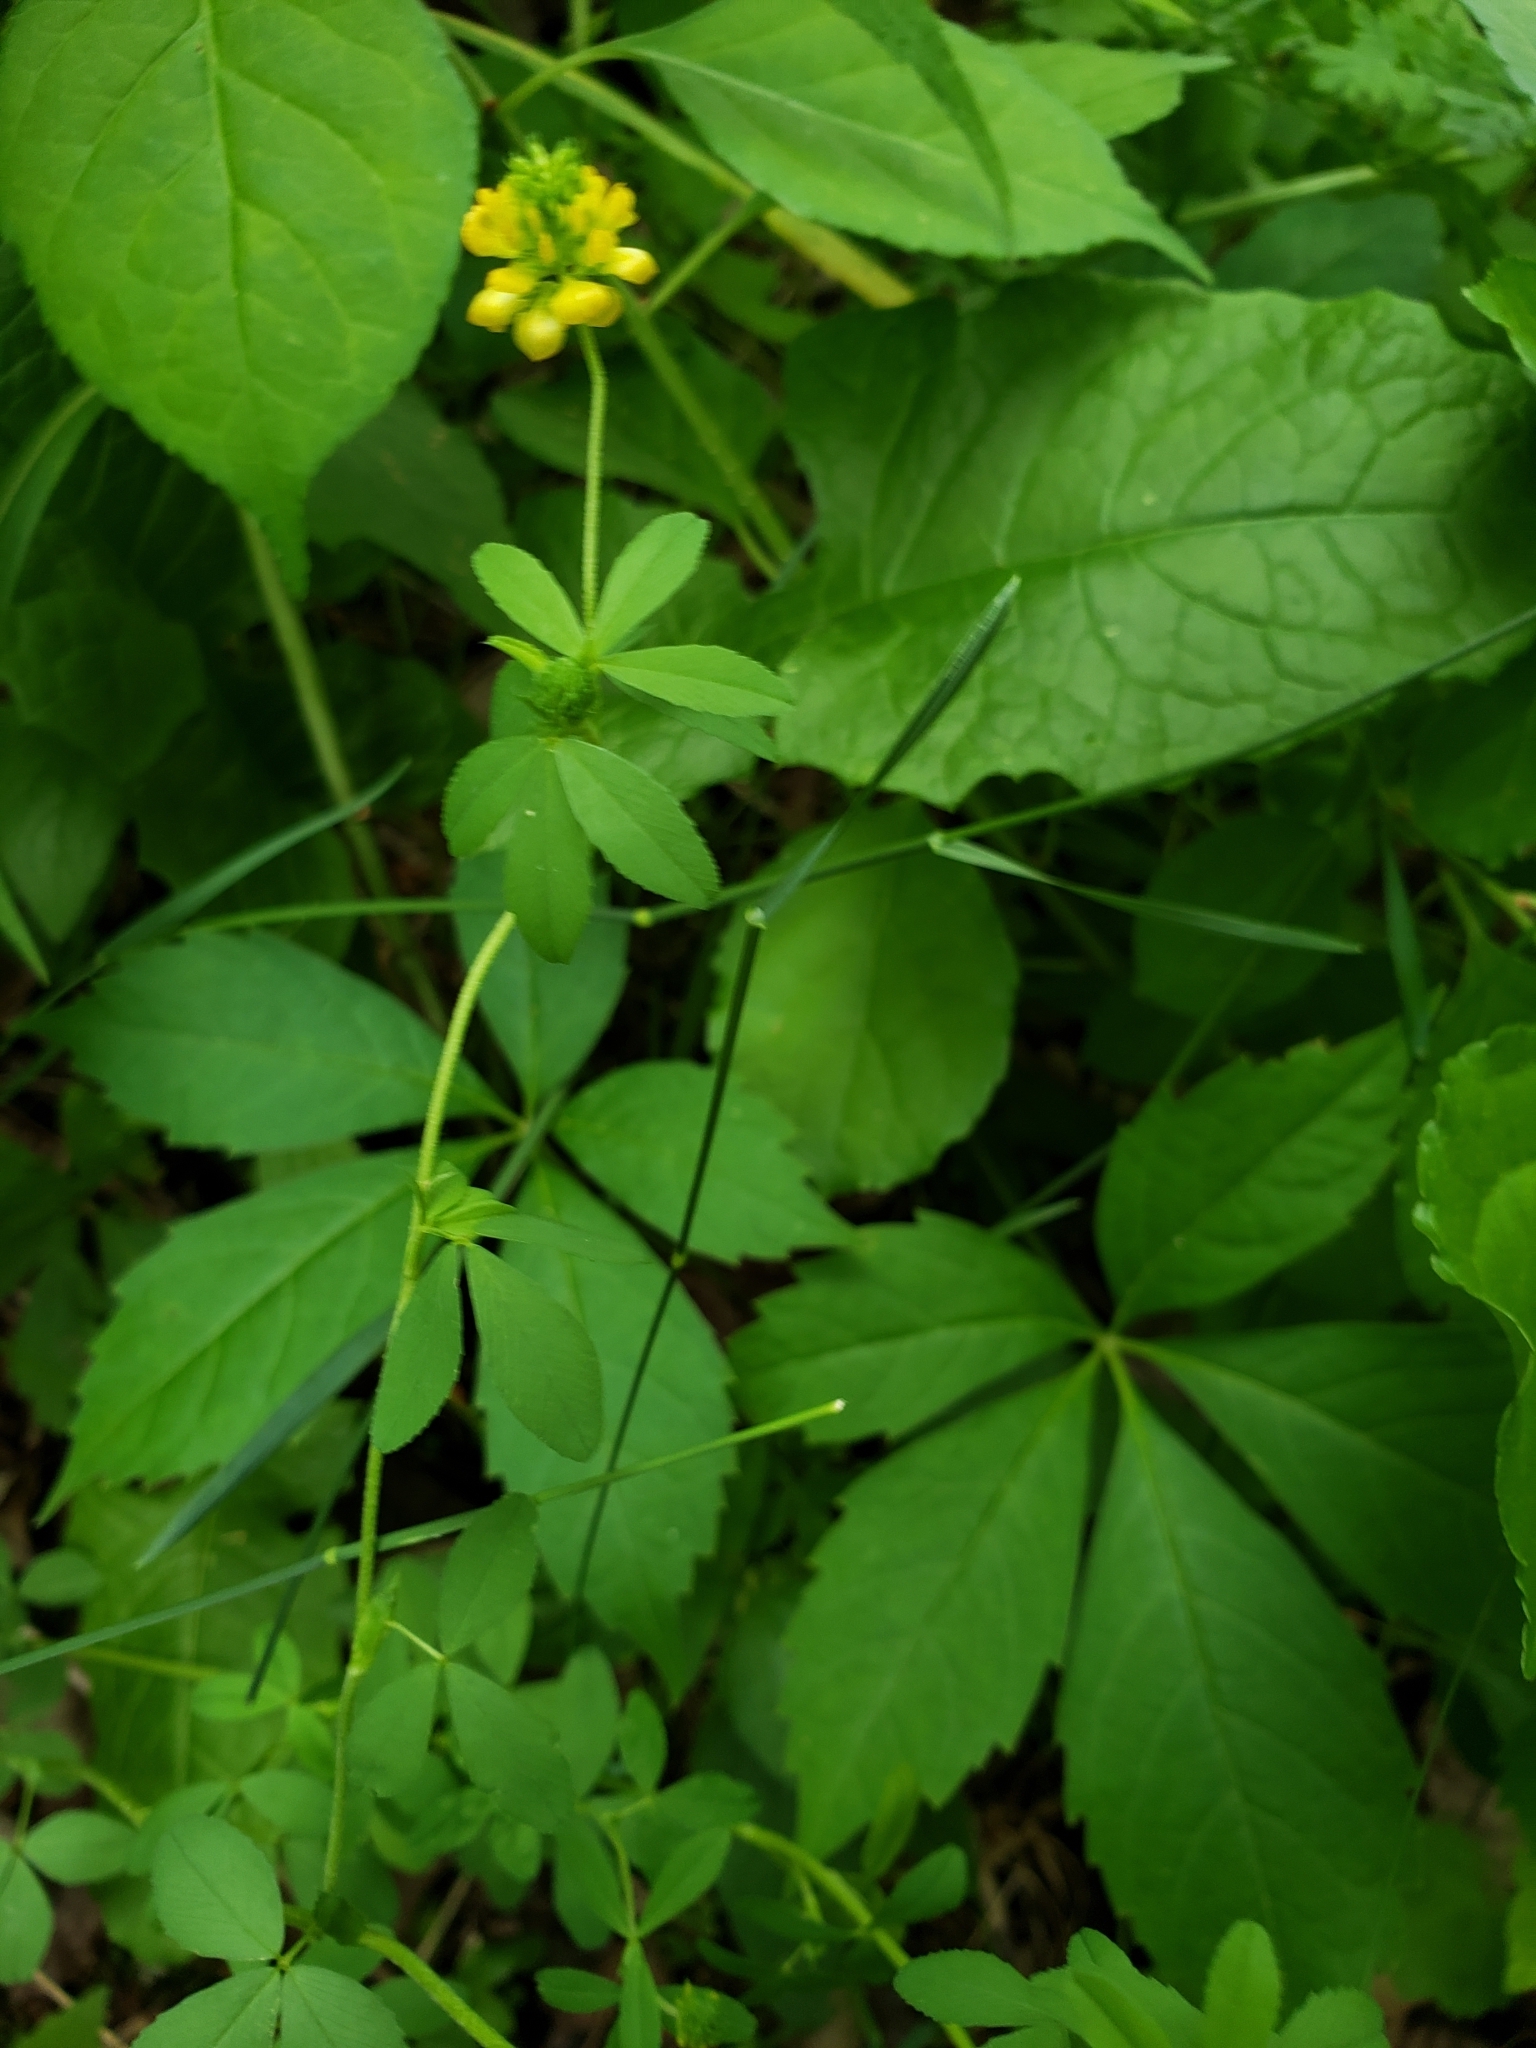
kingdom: Plantae
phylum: Tracheophyta
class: Magnoliopsida
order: Fabales
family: Fabaceae
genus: Trifolium
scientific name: Trifolium aureum
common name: Golden clover
